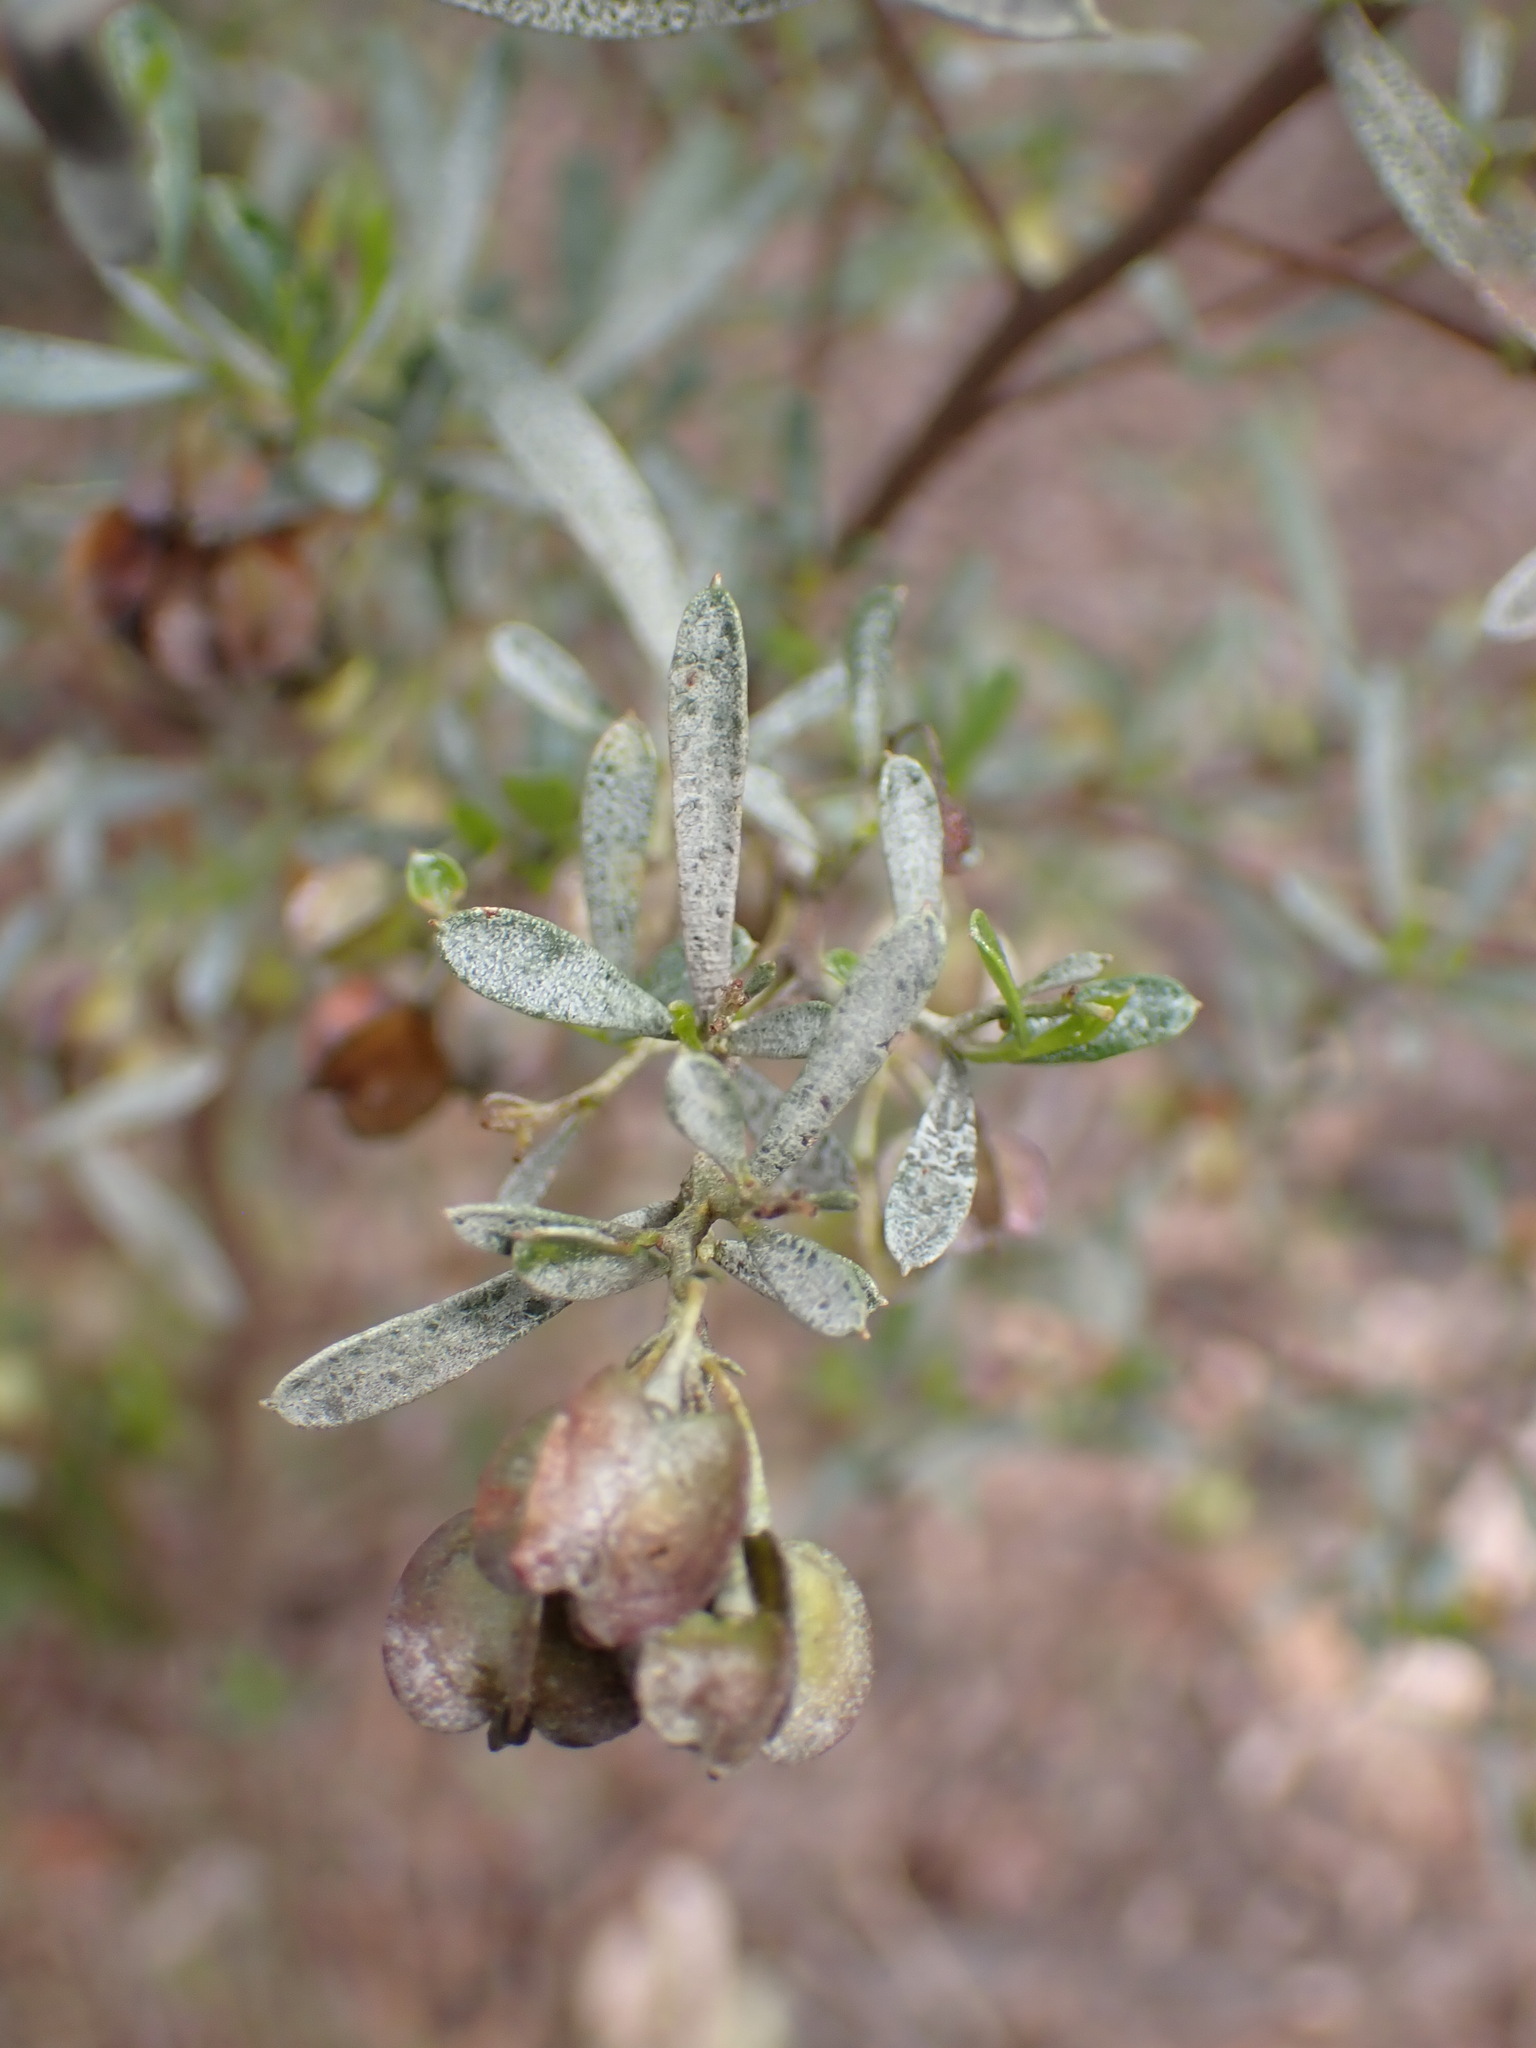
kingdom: Plantae
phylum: Tracheophyta
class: Magnoliopsida
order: Sapindales
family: Sapindaceae
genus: Dodonaea
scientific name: Dodonaea viscosa
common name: Hopbush
